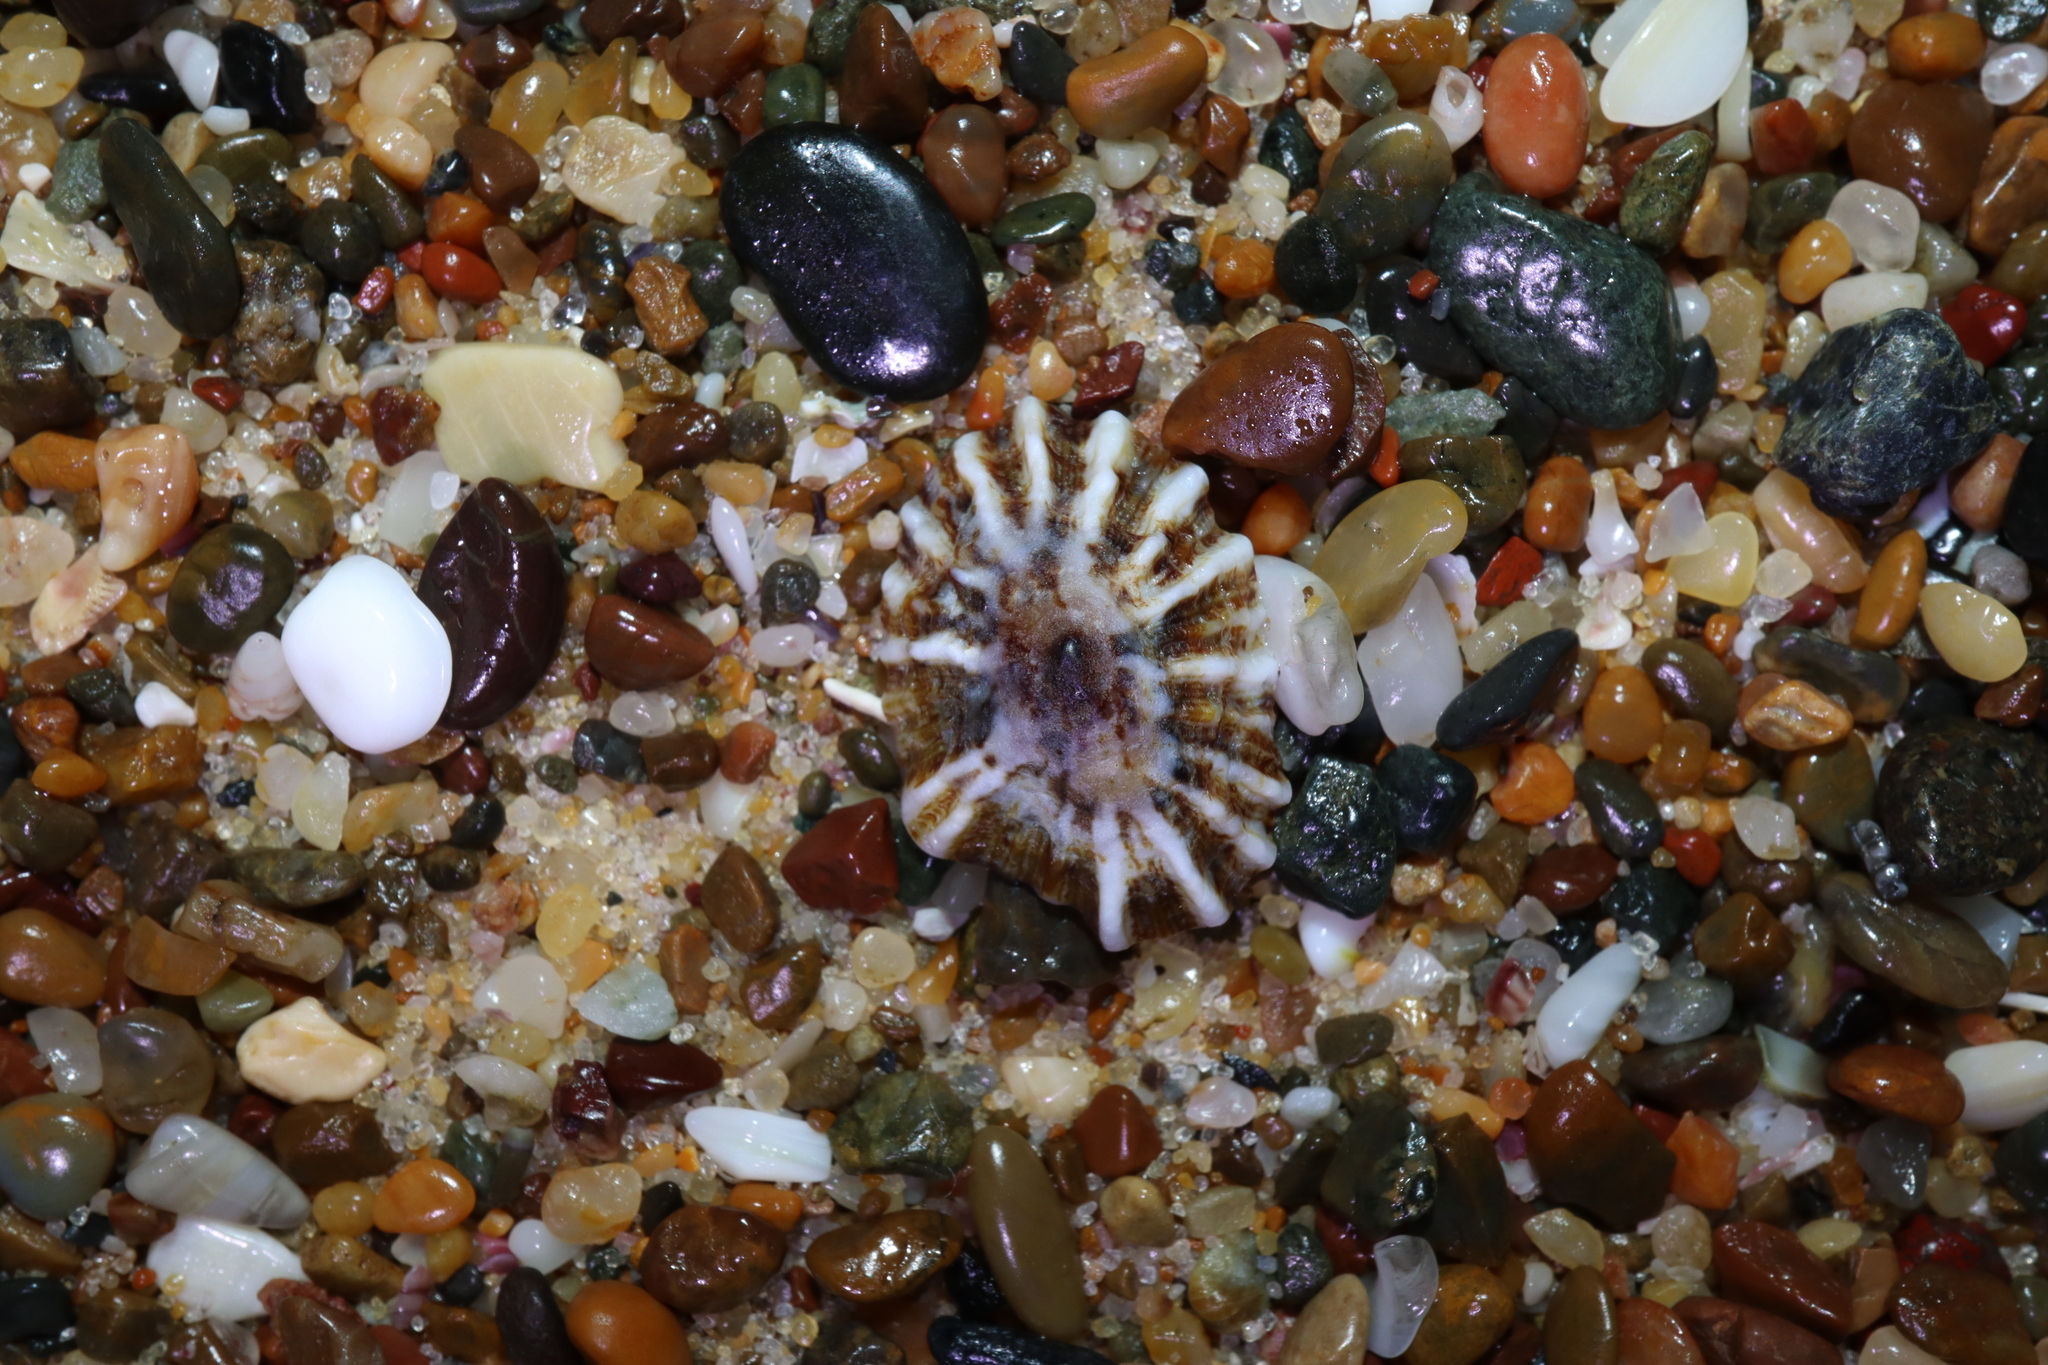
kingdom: Animalia
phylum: Mollusca
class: Gastropoda
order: Siphonariida
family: Siphonariidae
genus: Siphonaria
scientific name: Siphonaria denticulata
